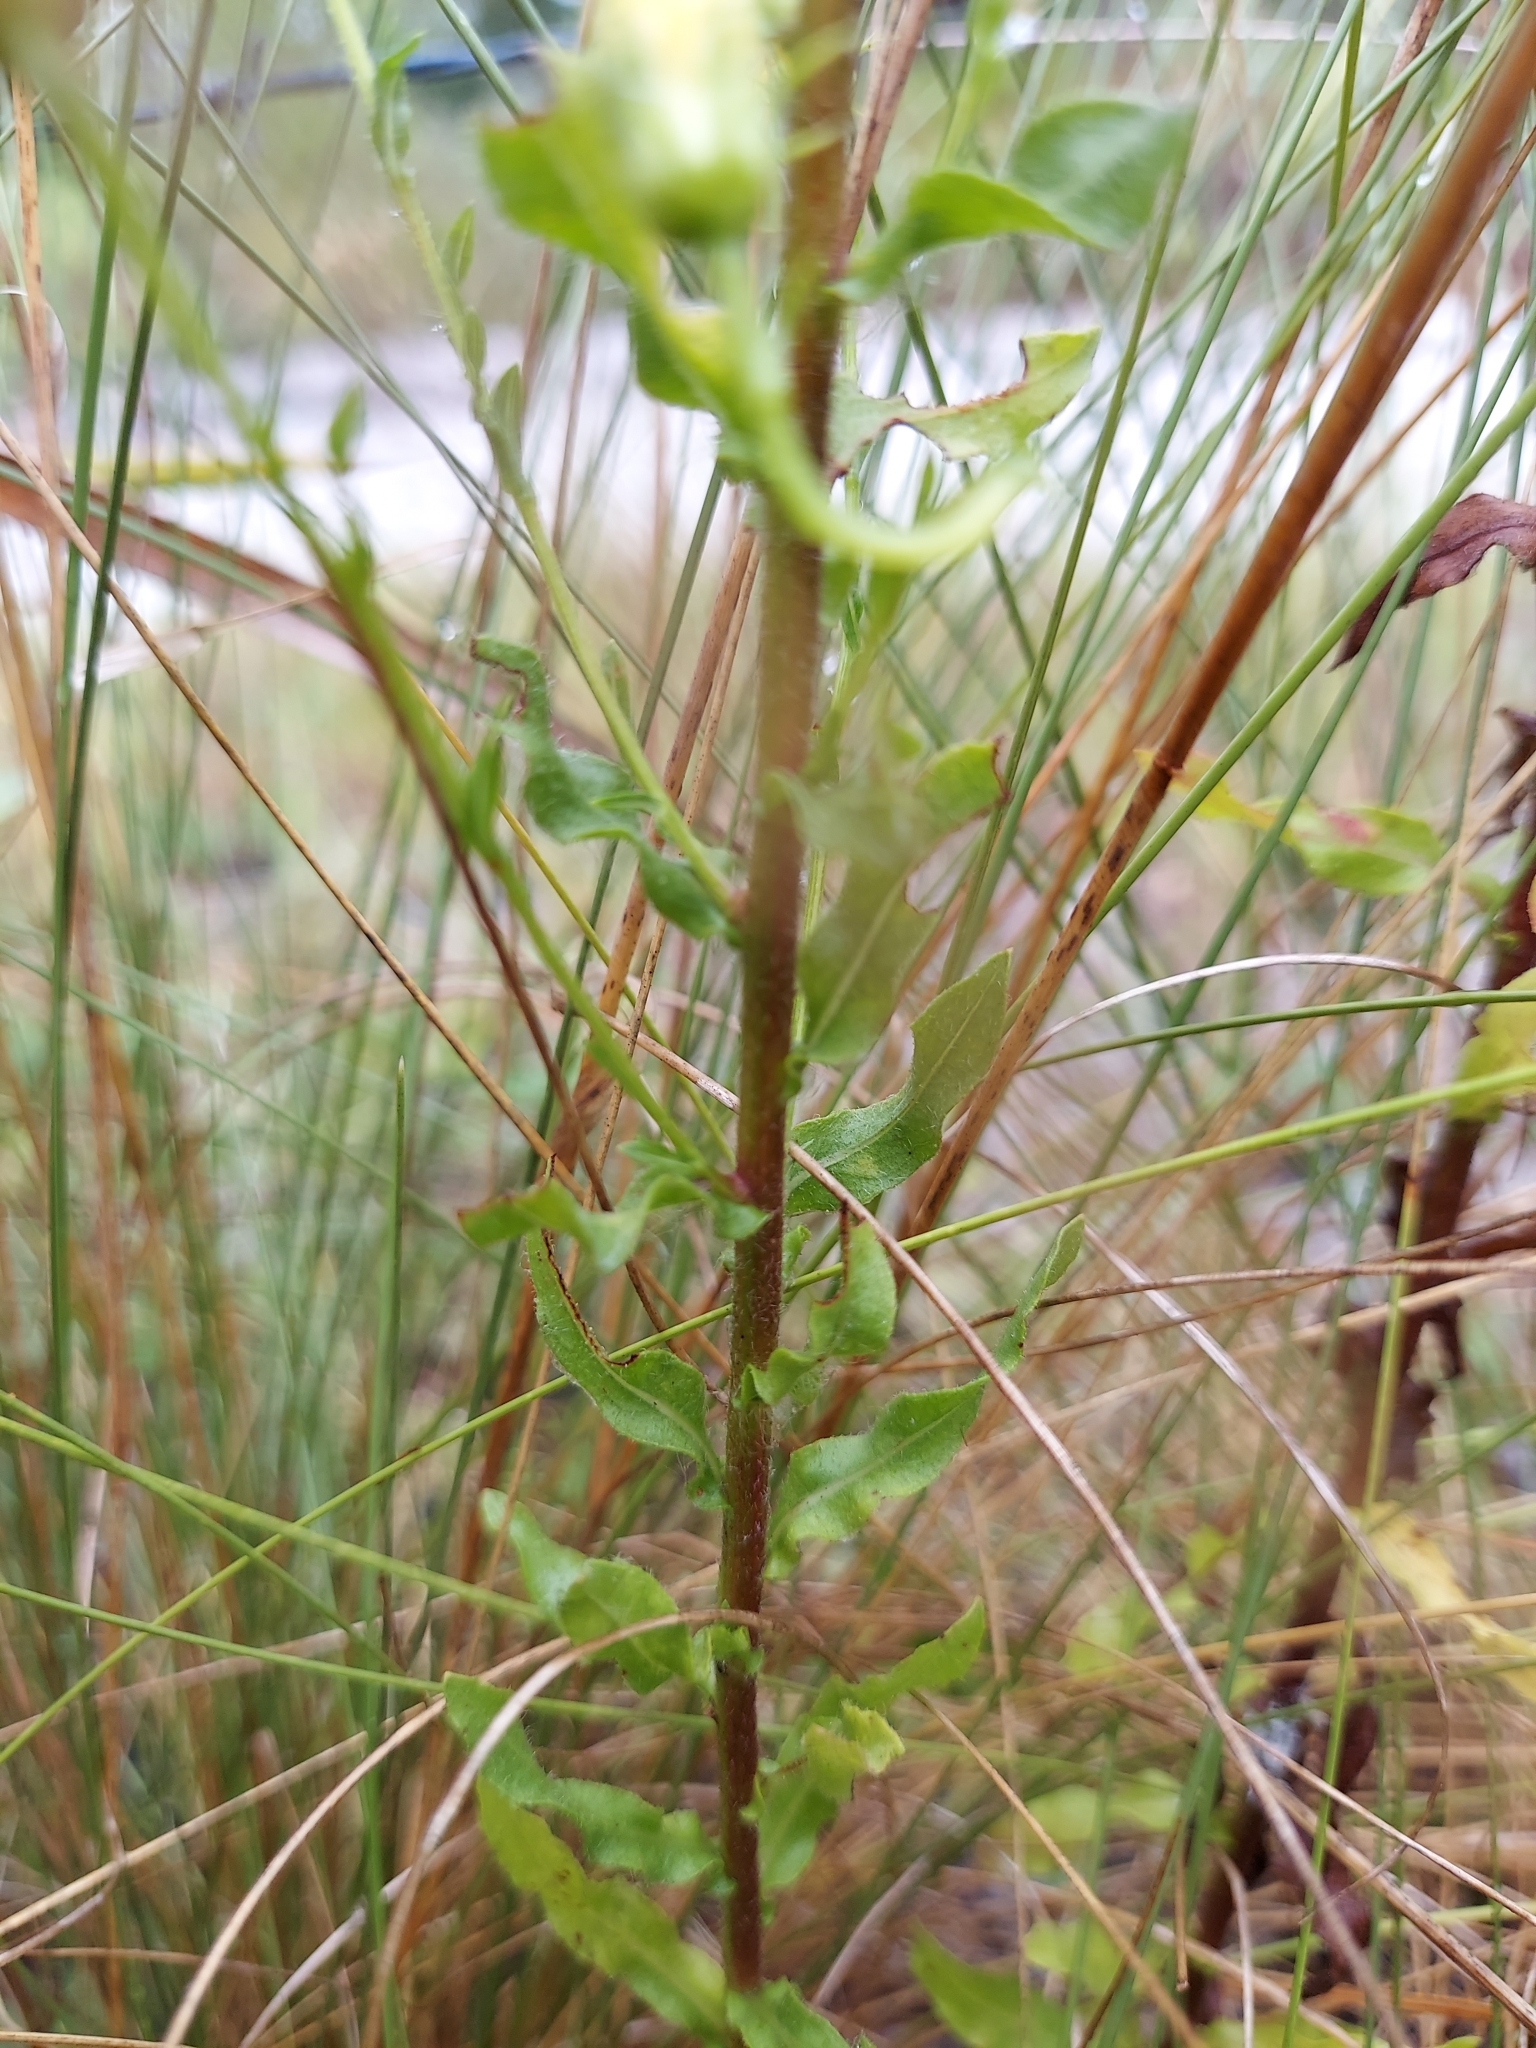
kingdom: Plantae
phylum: Tracheophyta
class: Magnoliopsida
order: Asterales
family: Asteraceae
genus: Chrysopsis
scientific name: Chrysopsis subulata
